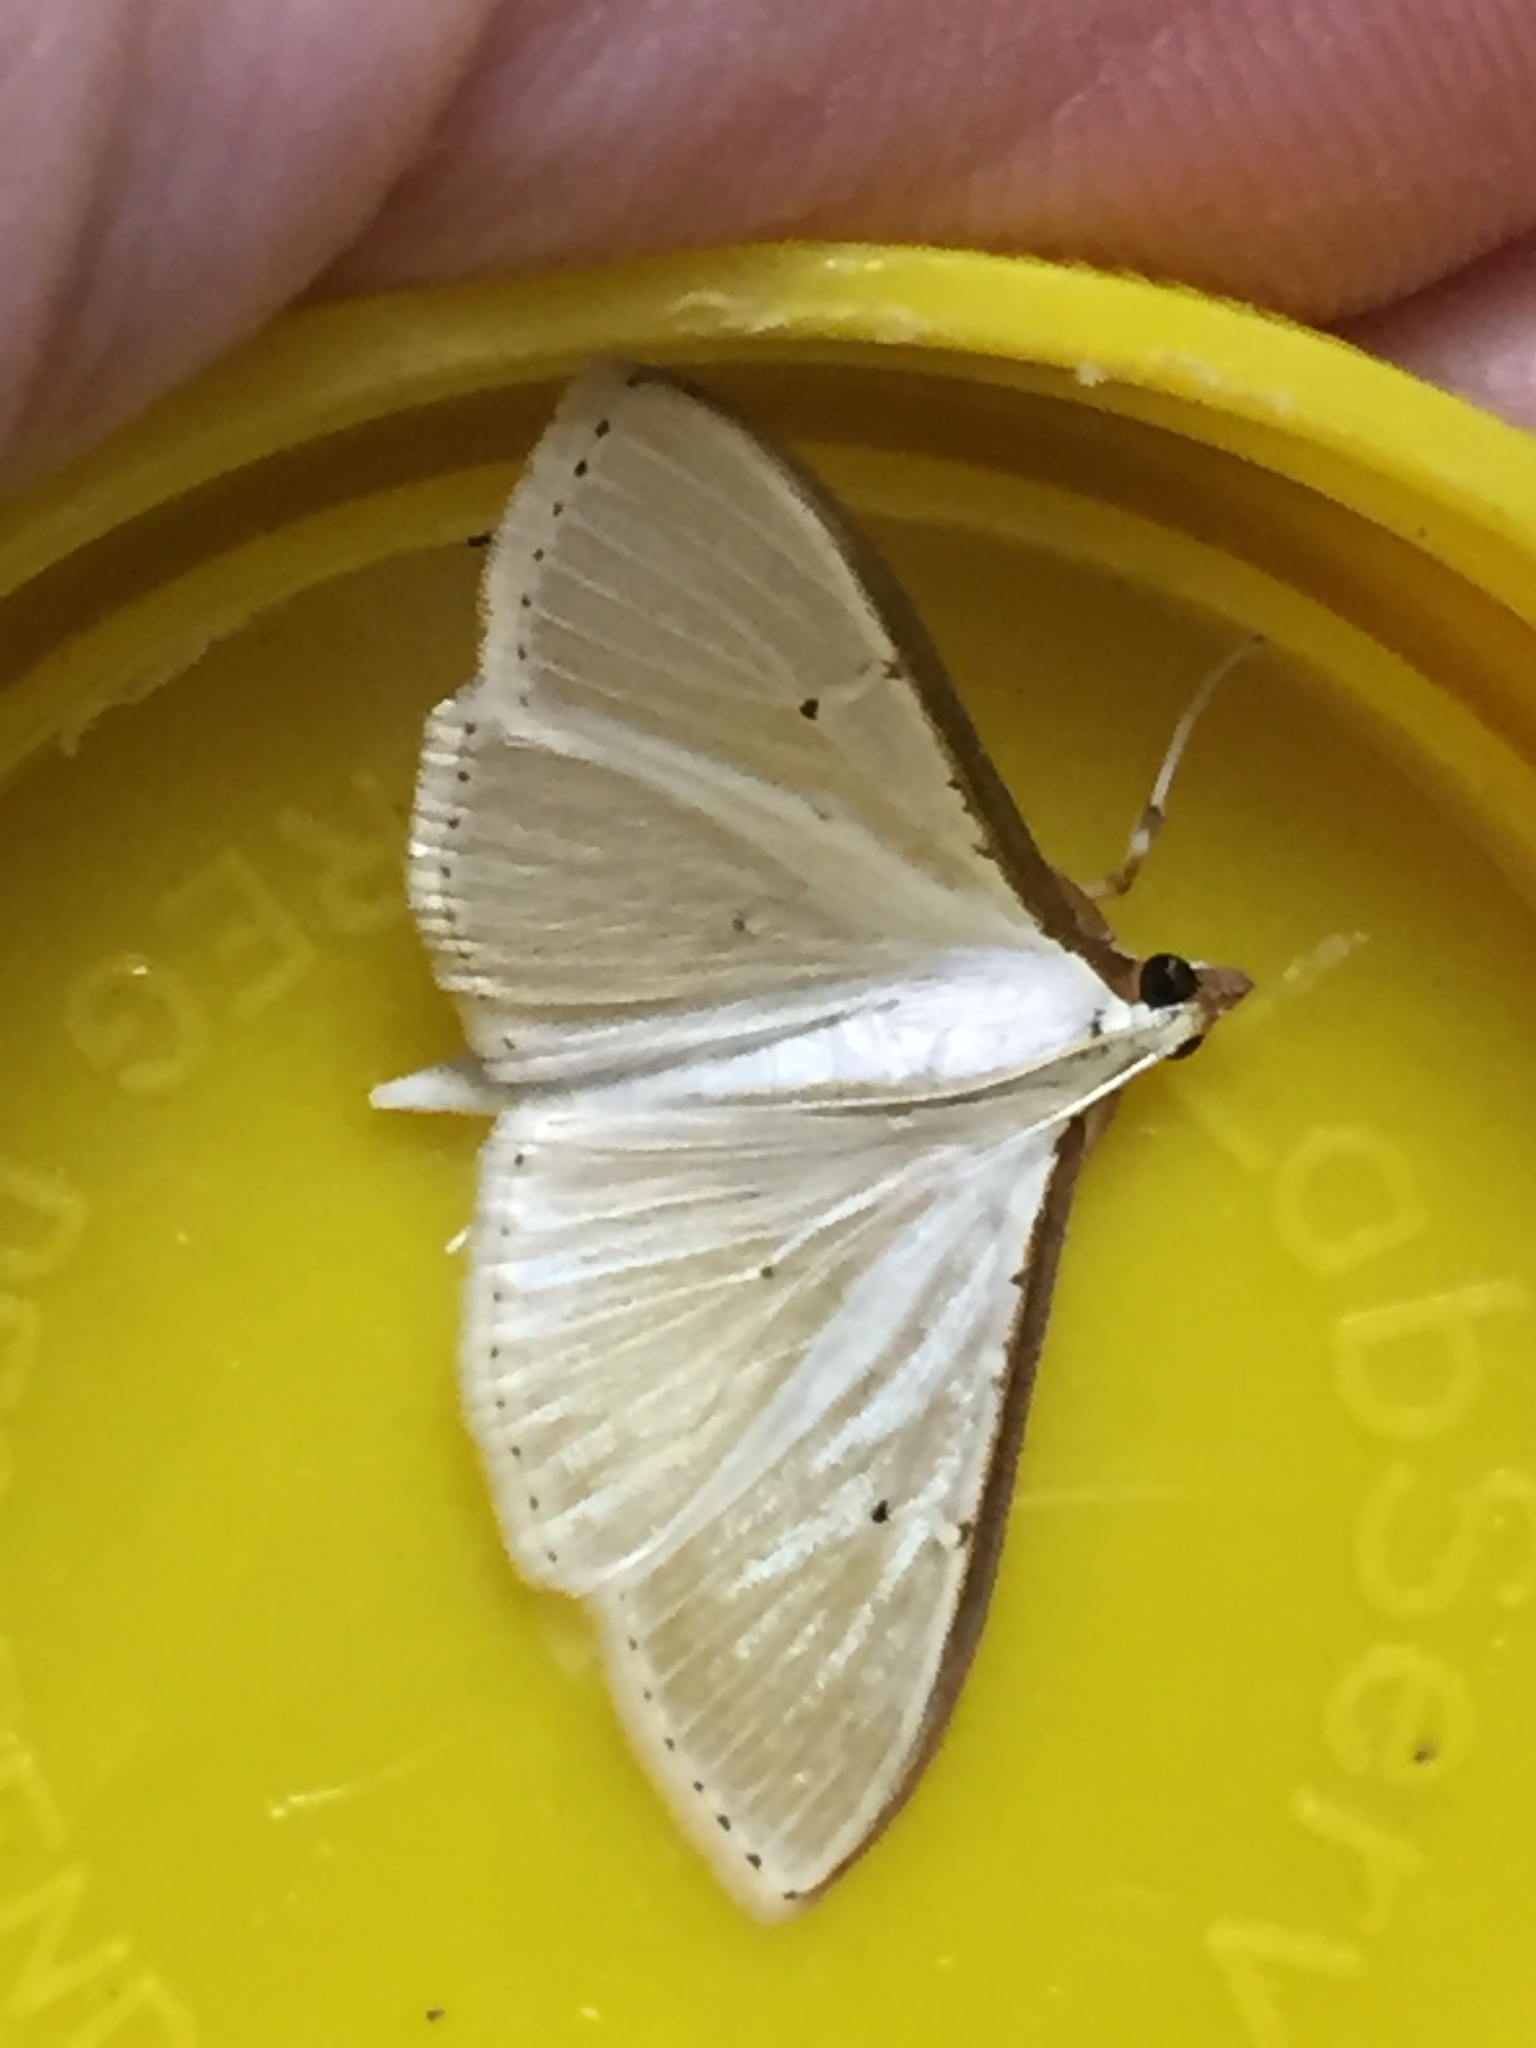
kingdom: Animalia
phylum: Arthropoda
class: Insecta
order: Lepidoptera
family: Crambidae
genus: Palpita
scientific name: Palpita
